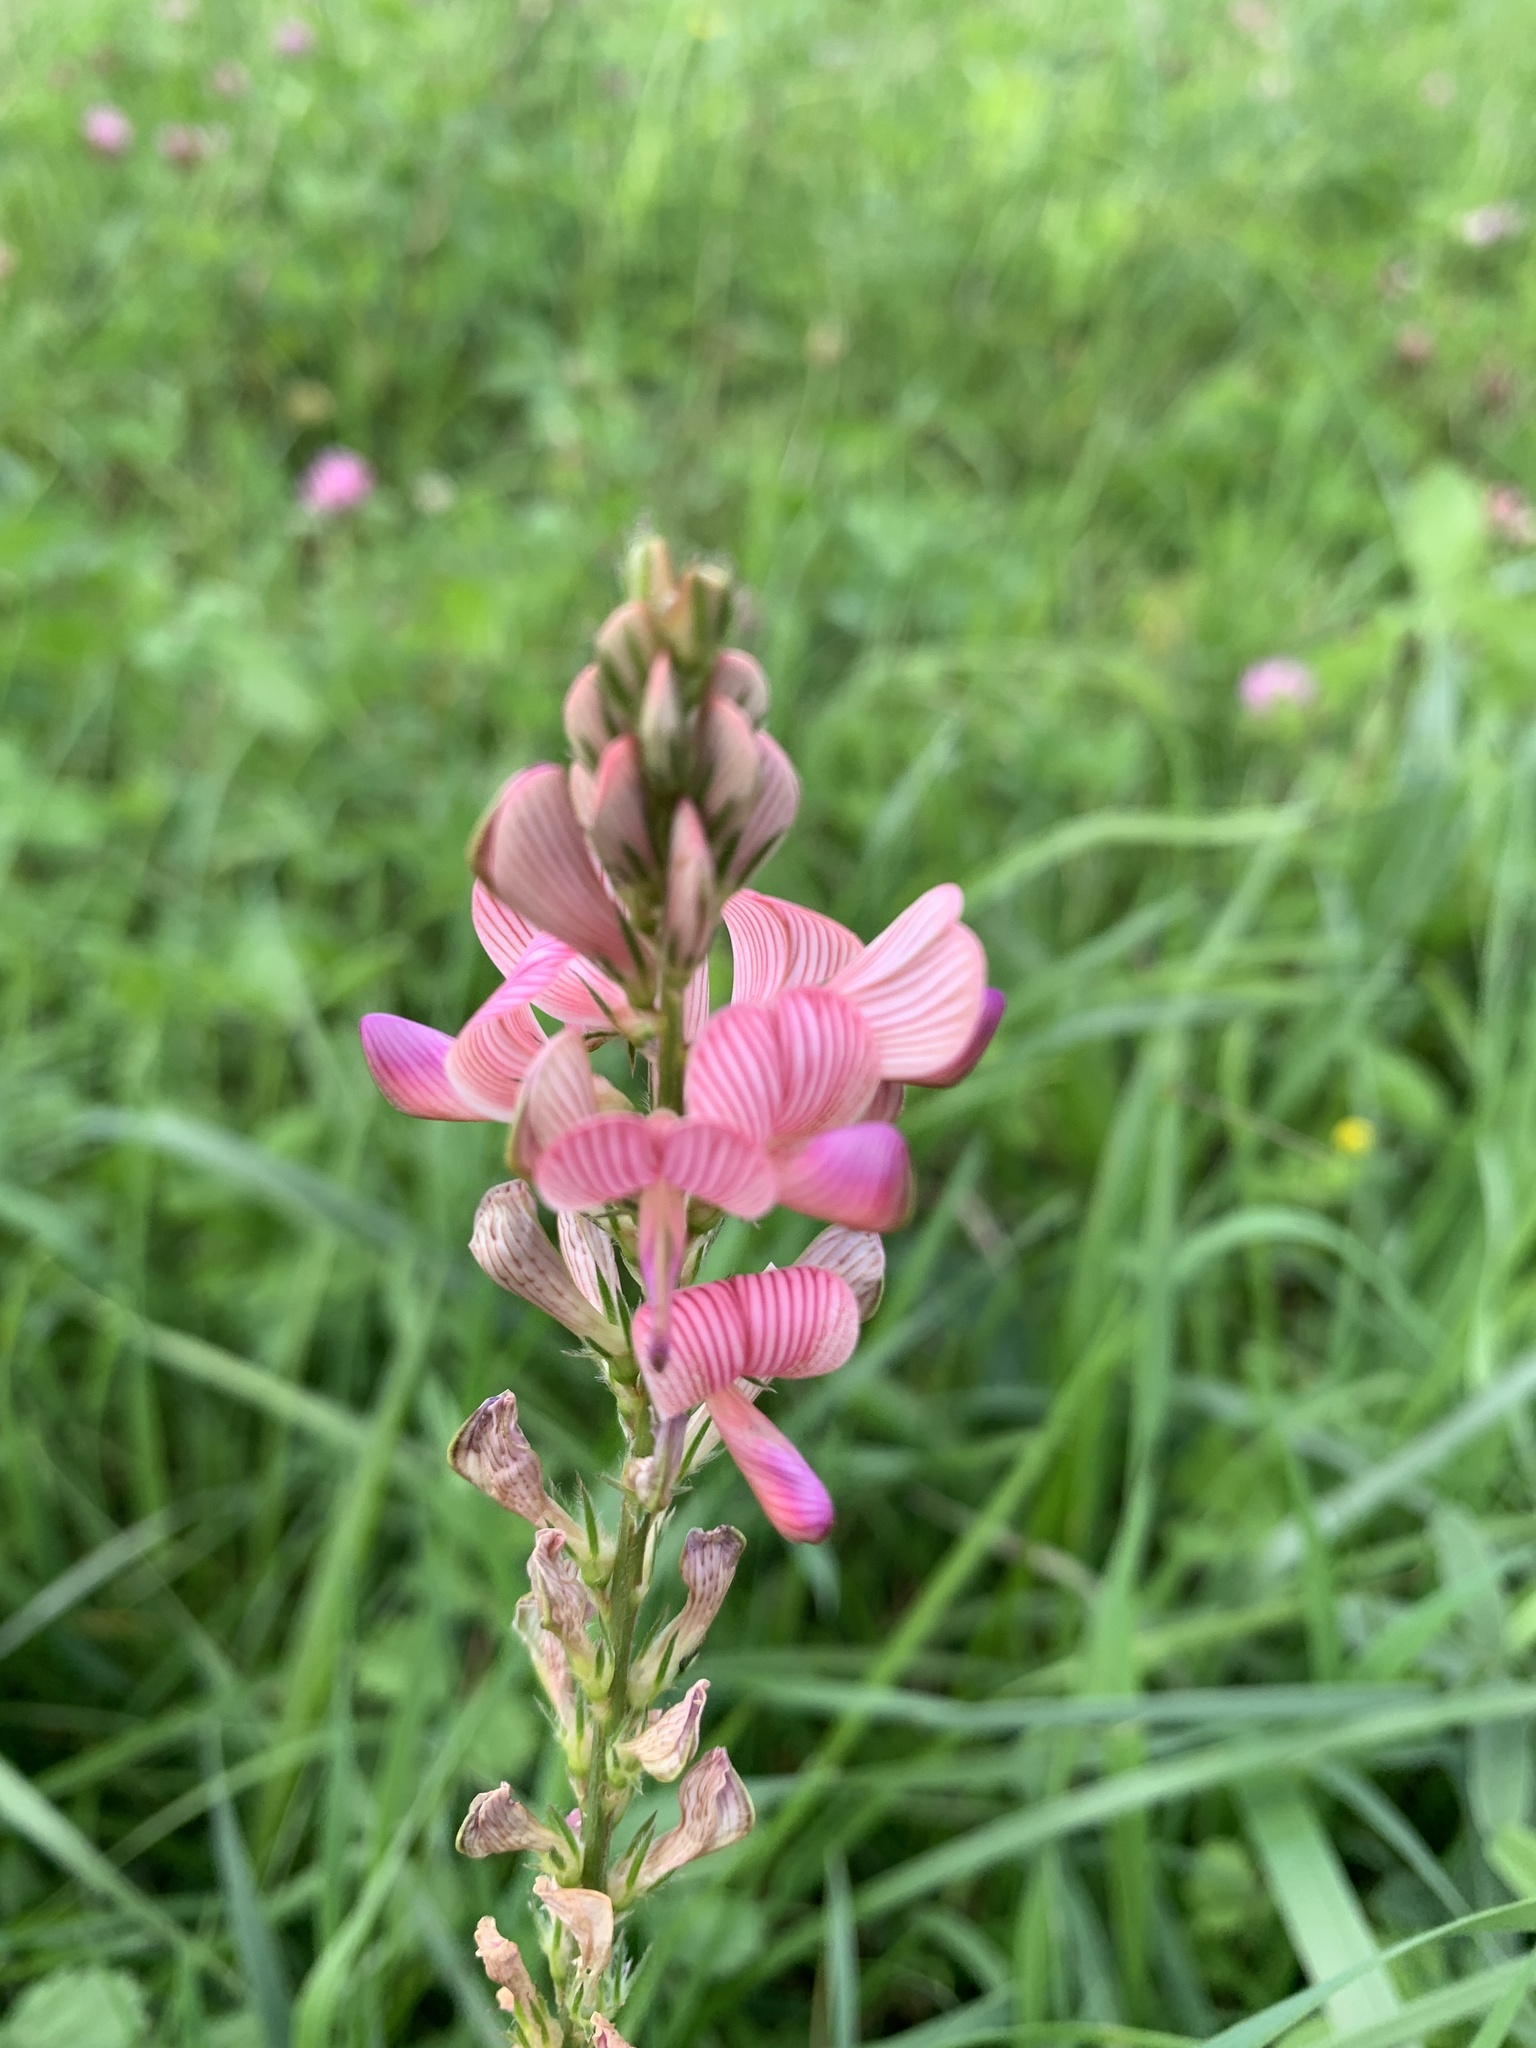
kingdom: Plantae
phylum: Tracheophyta
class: Magnoliopsida
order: Fabales
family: Fabaceae
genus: Onobrychis
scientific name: Onobrychis viciifolia
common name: Sainfoin
